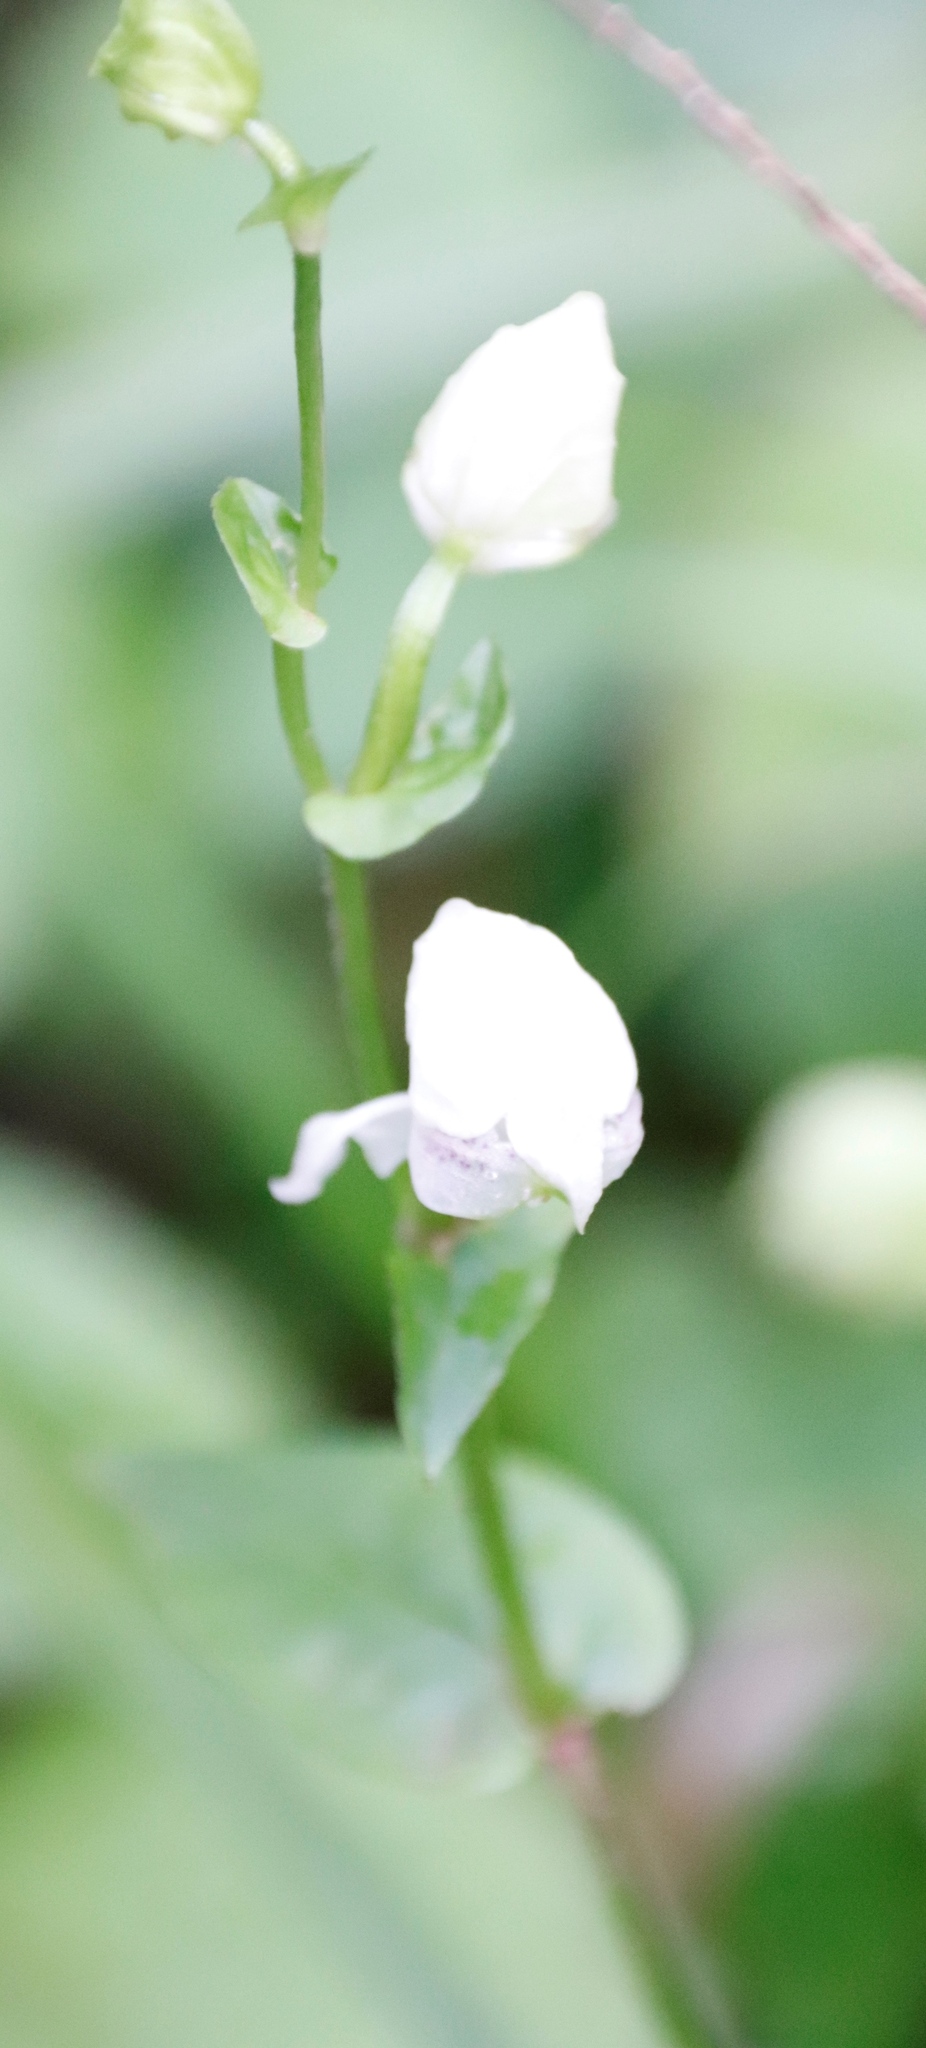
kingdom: Plantae
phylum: Tracheophyta
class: Liliopsida
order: Asparagales
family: Orchidaceae
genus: Disperis
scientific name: Disperis fanniniae
